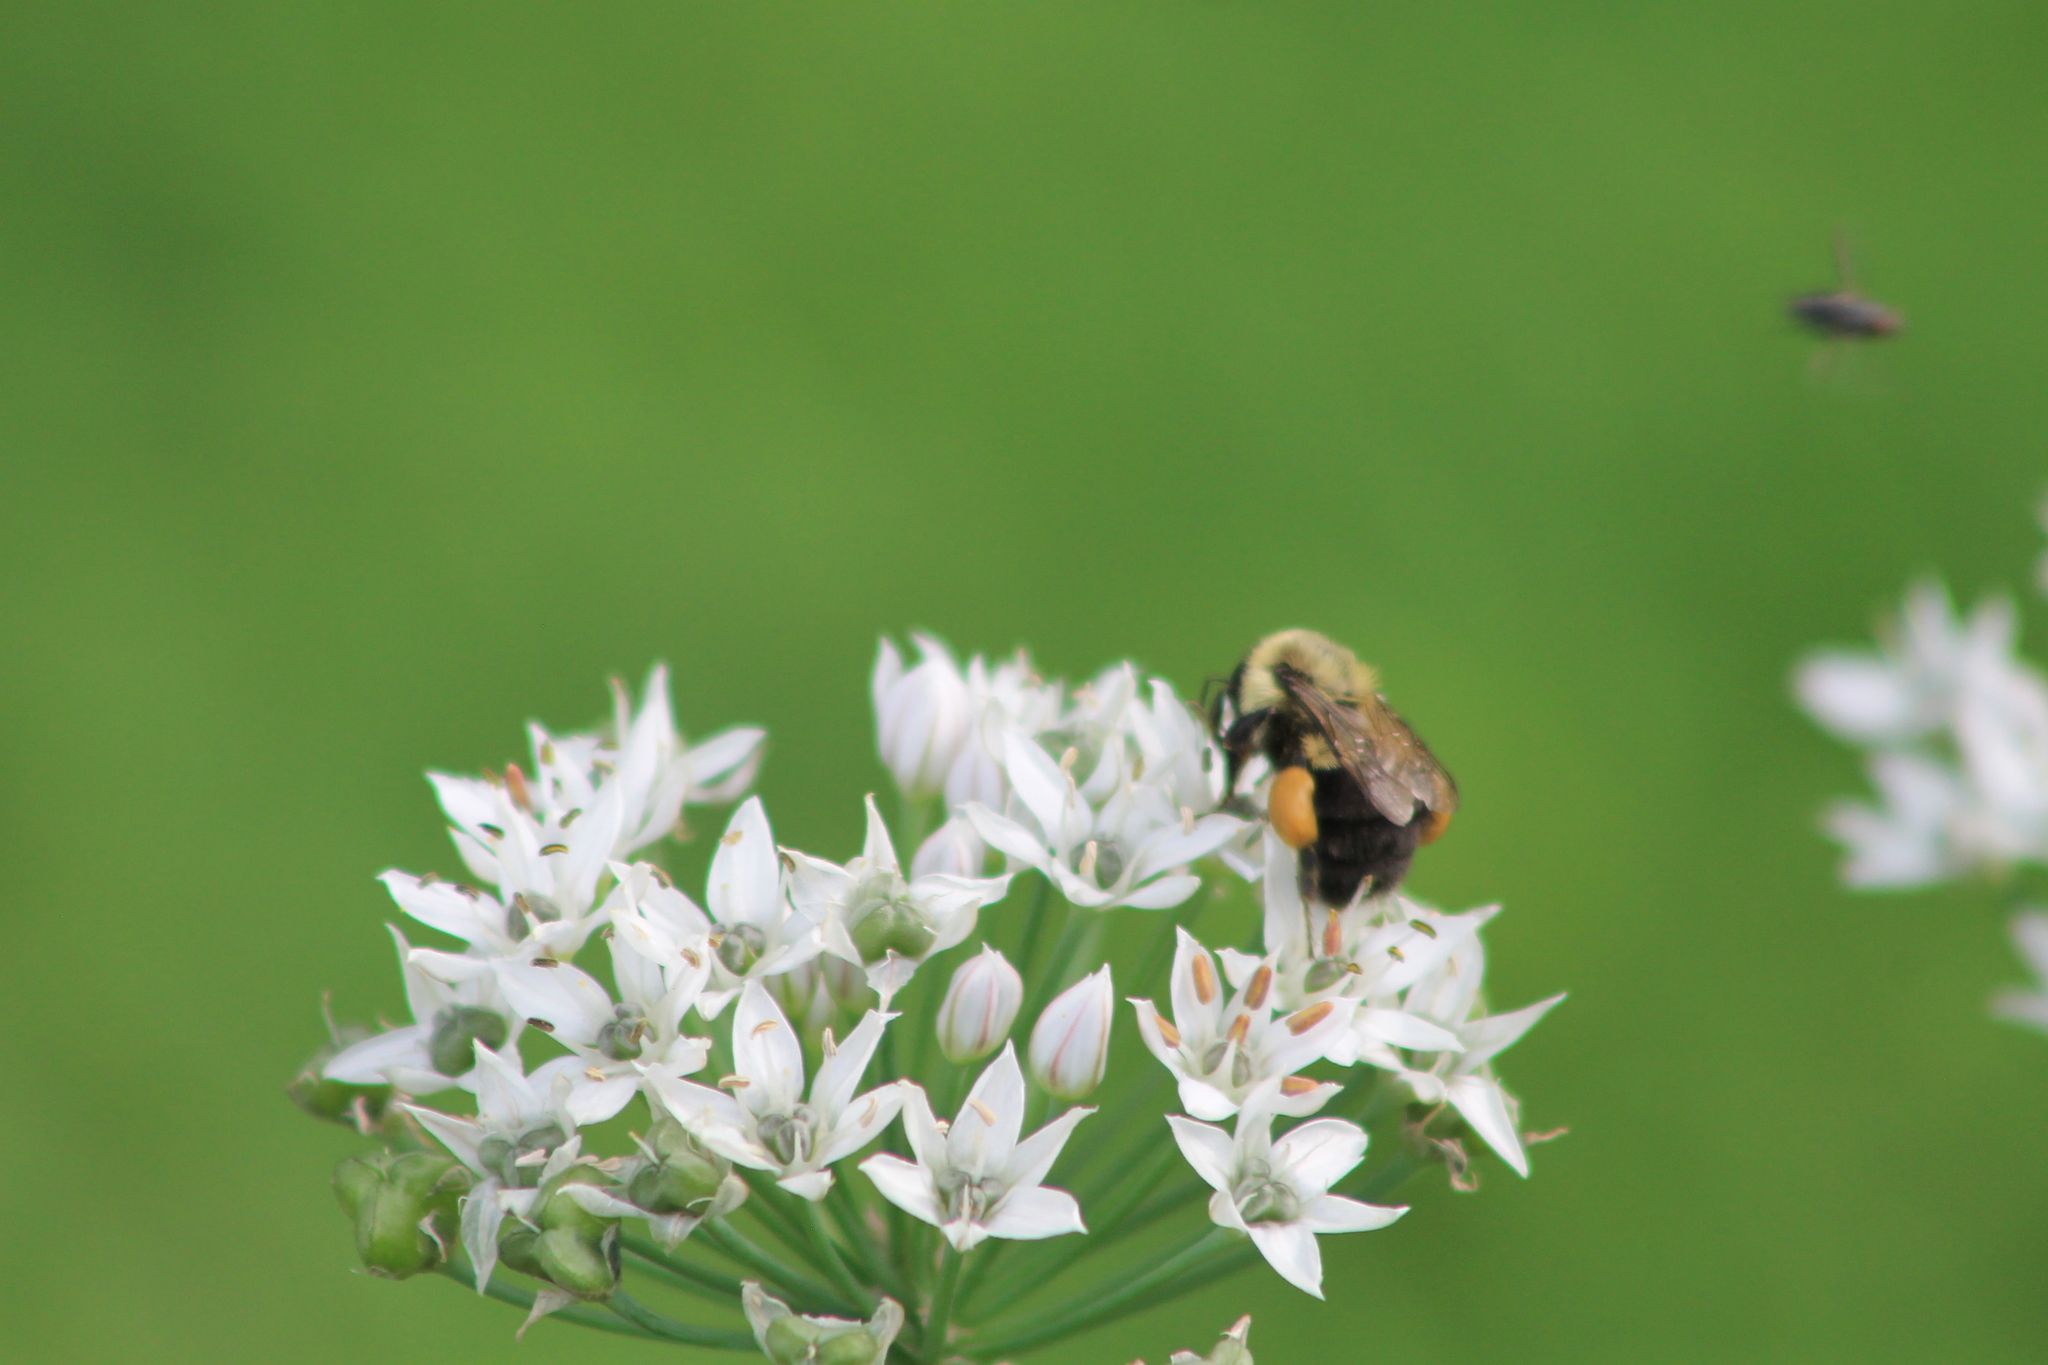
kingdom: Animalia
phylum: Arthropoda
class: Insecta
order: Hymenoptera
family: Apidae
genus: Bombus
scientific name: Bombus impatiens
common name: Common eastern bumble bee
